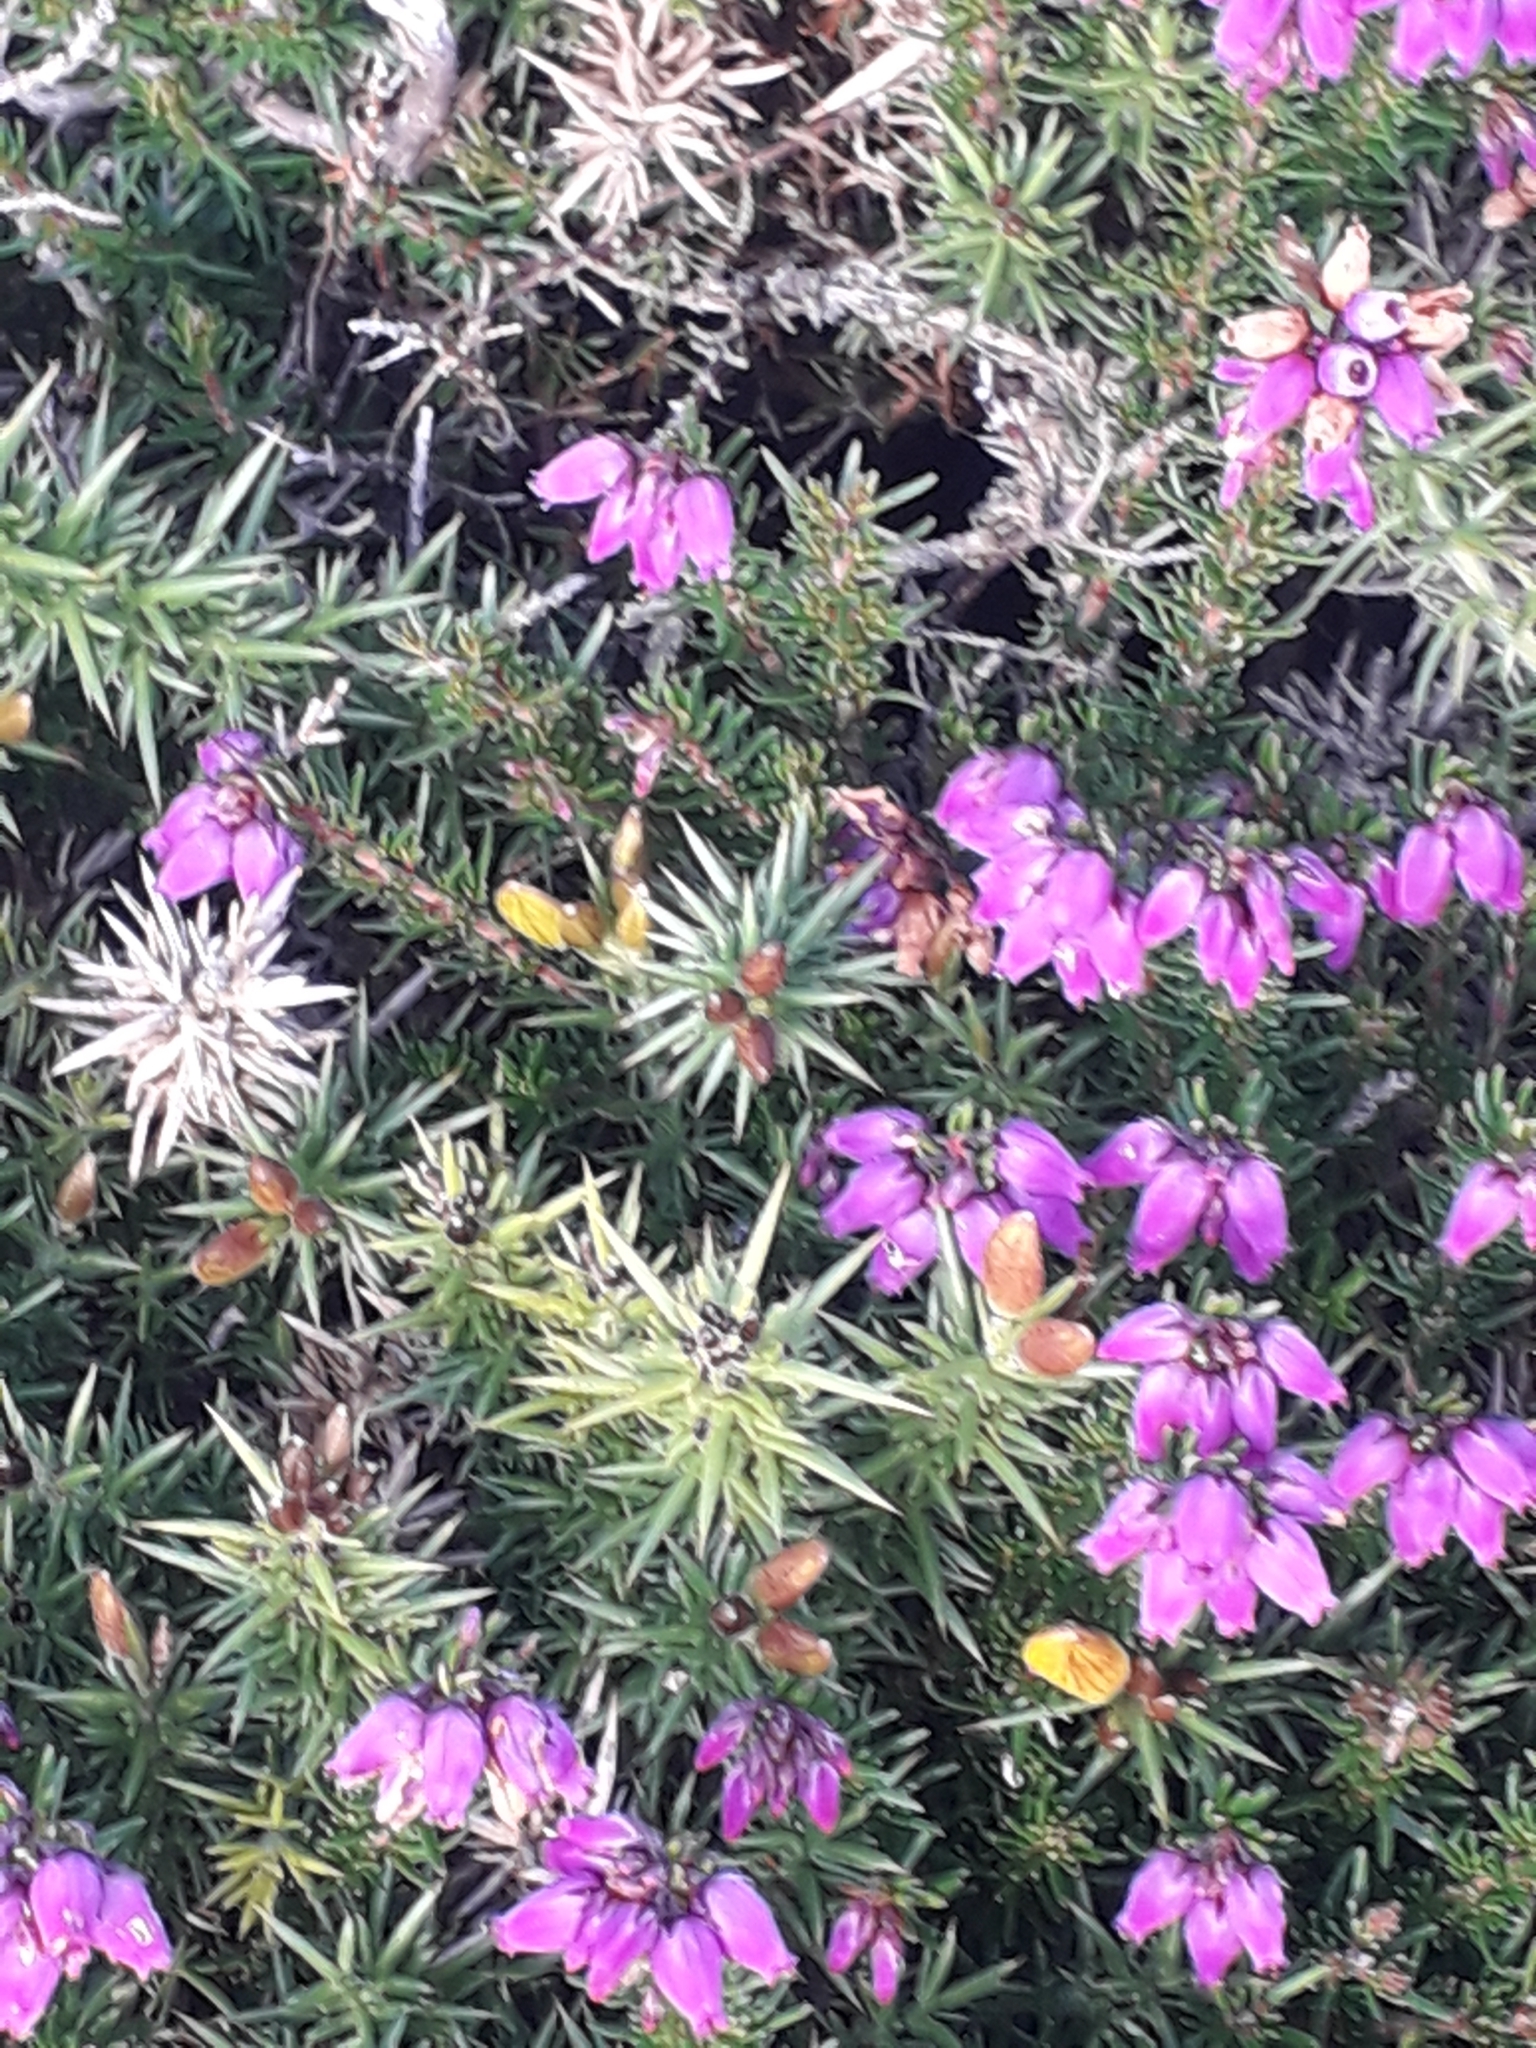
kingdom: Plantae
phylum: Tracheophyta
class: Magnoliopsida
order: Ericales
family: Ericaceae
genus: Erica
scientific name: Erica cinerea
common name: Bell heather
